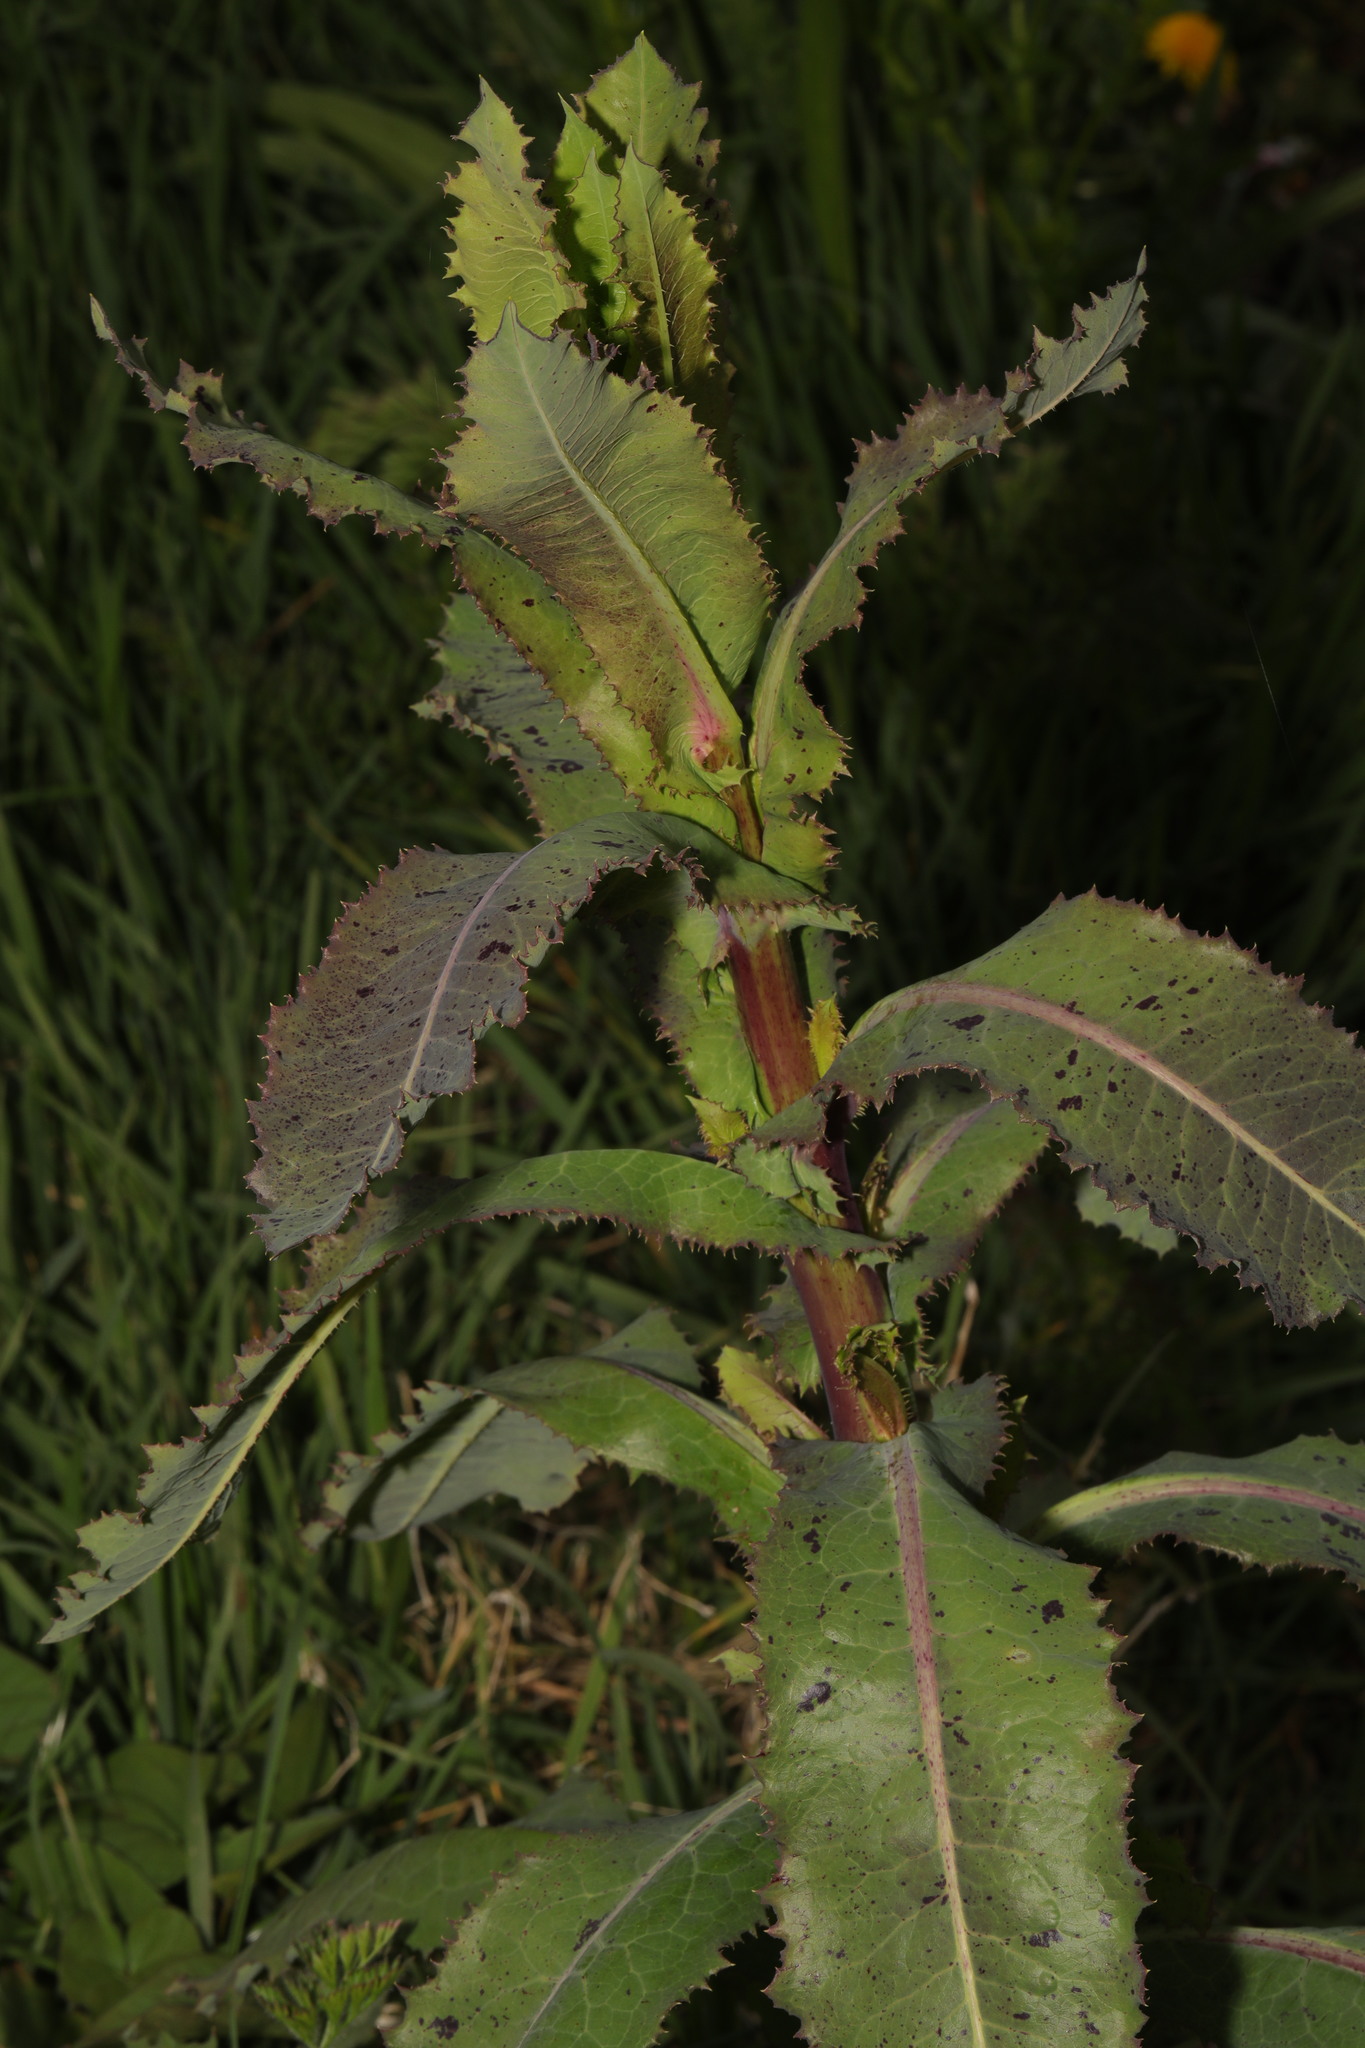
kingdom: Plantae
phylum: Tracheophyta
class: Magnoliopsida
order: Asterales
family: Asteraceae
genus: Sonchus
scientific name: Sonchus asper
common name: Prickly sow-thistle
